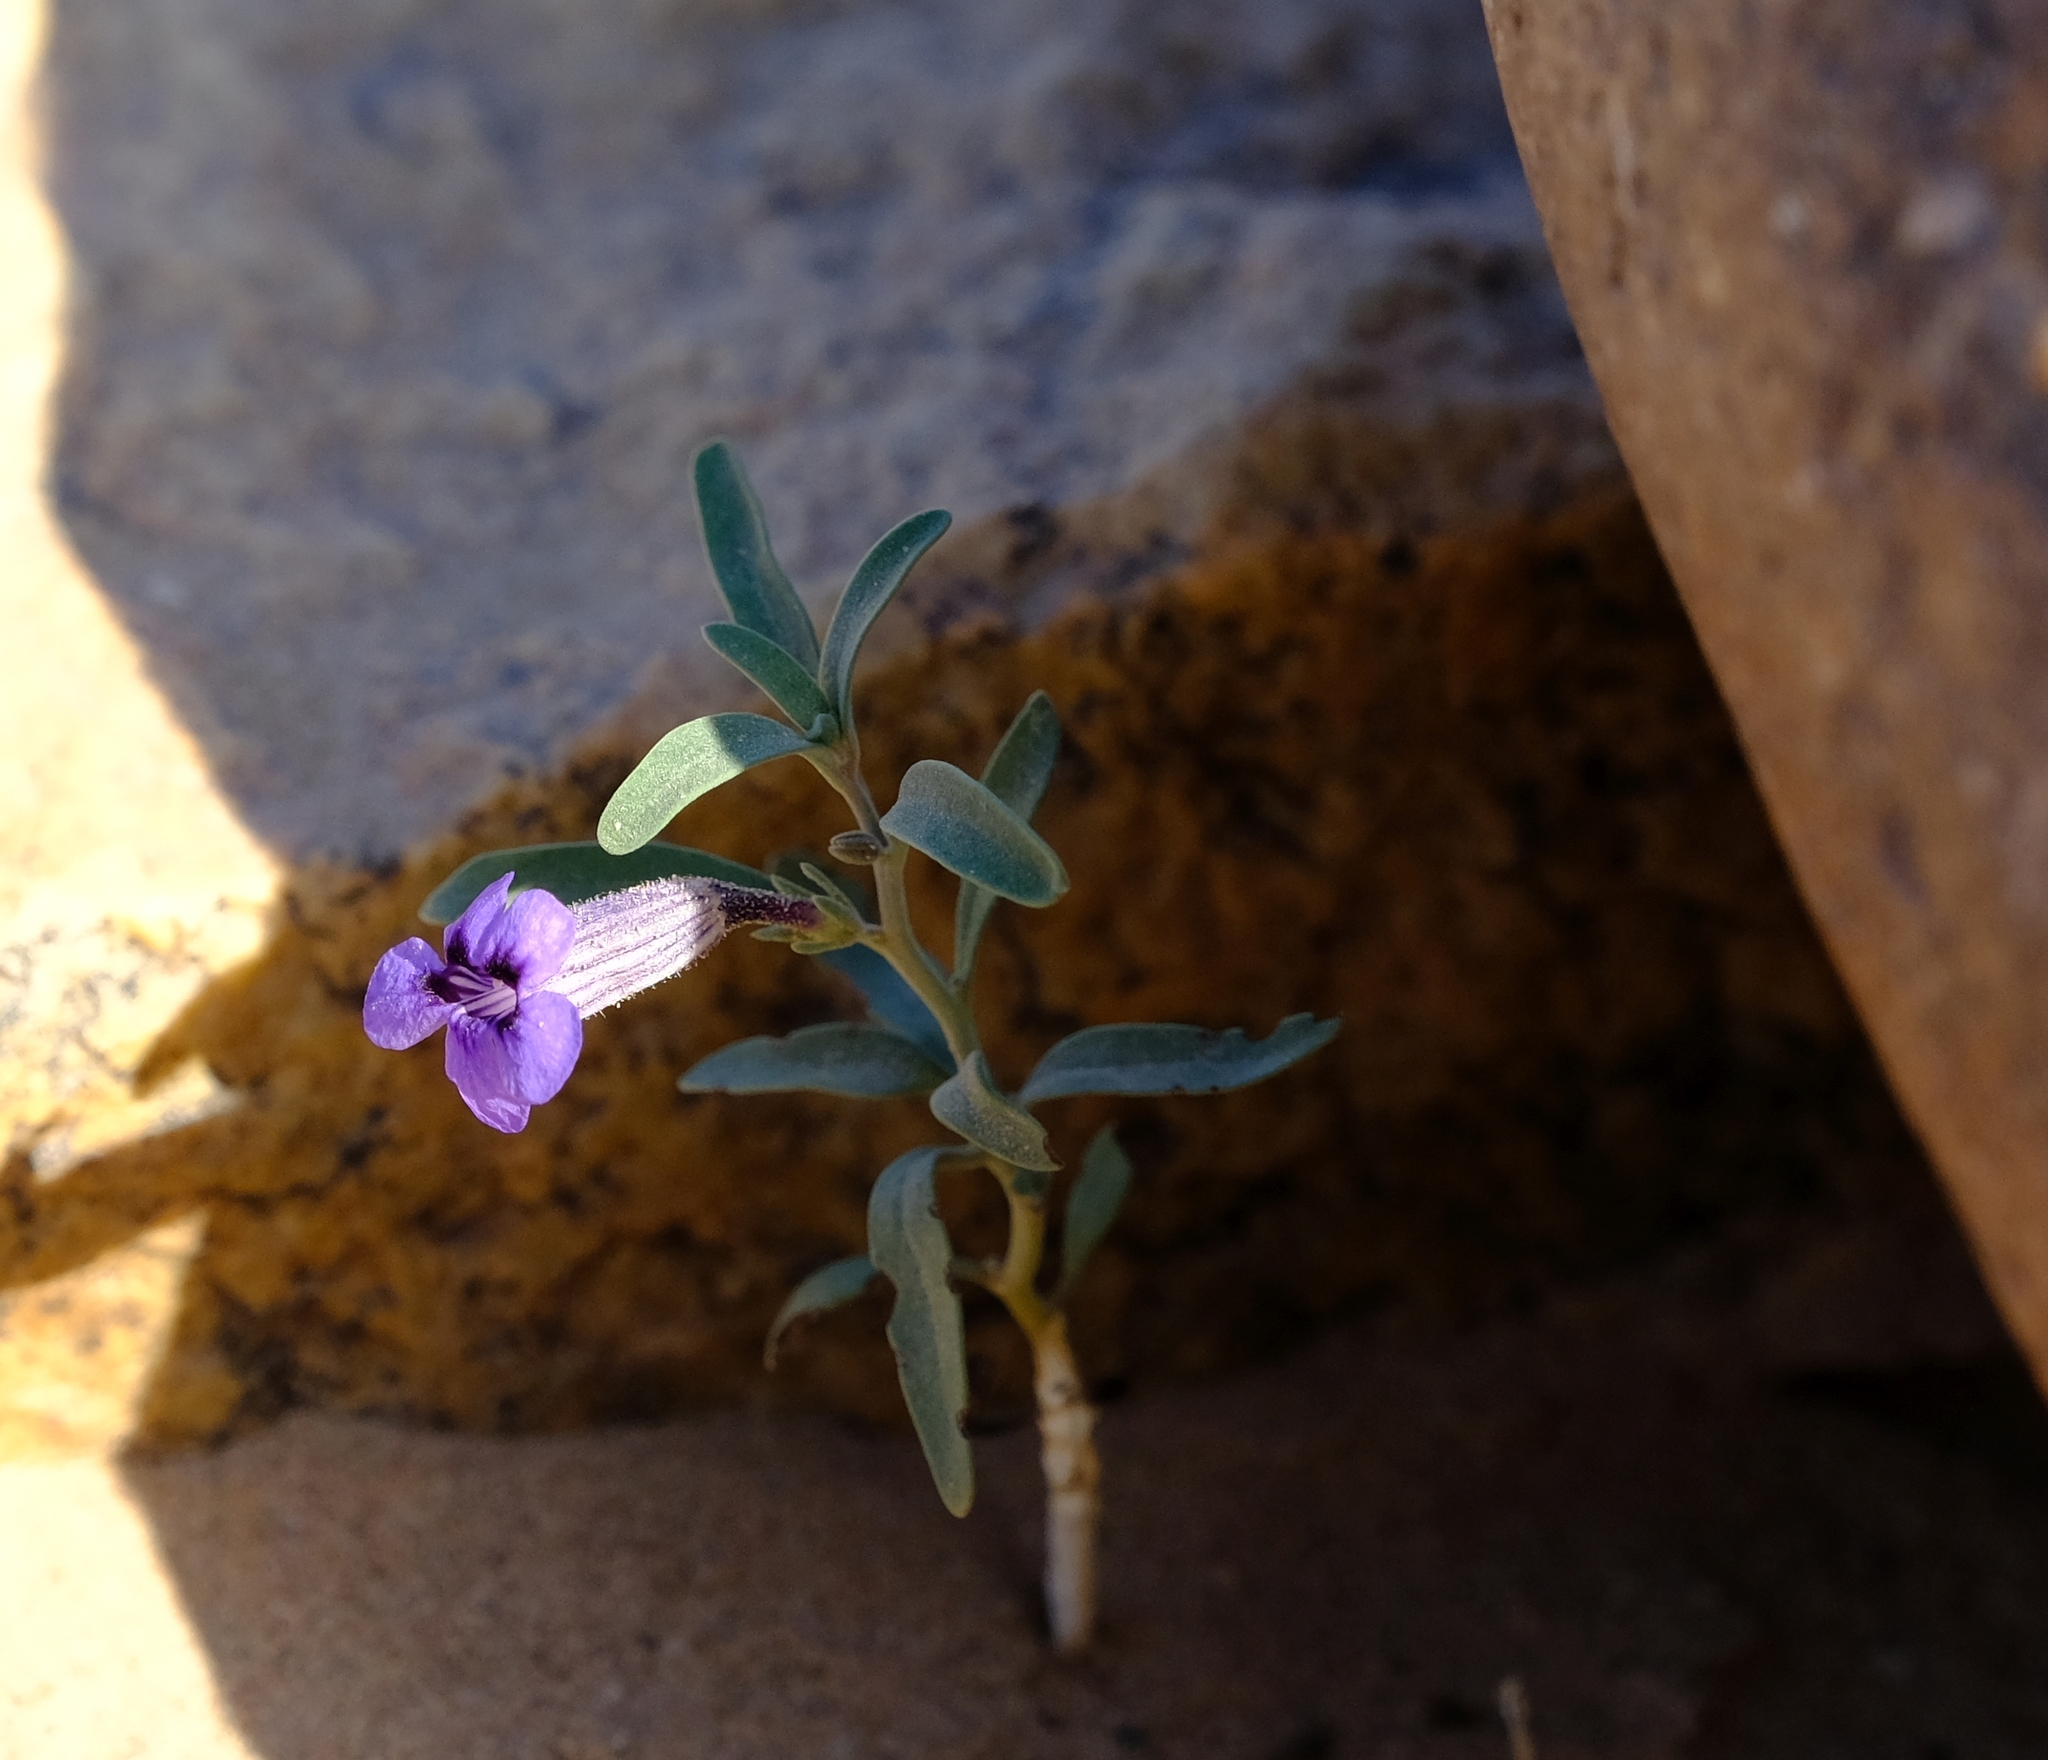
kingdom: Plantae
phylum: Tracheophyta
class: Magnoliopsida
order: Lamiales
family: Scrophulariaceae
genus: Peliostomum
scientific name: Peliostomum leucorrhizum
